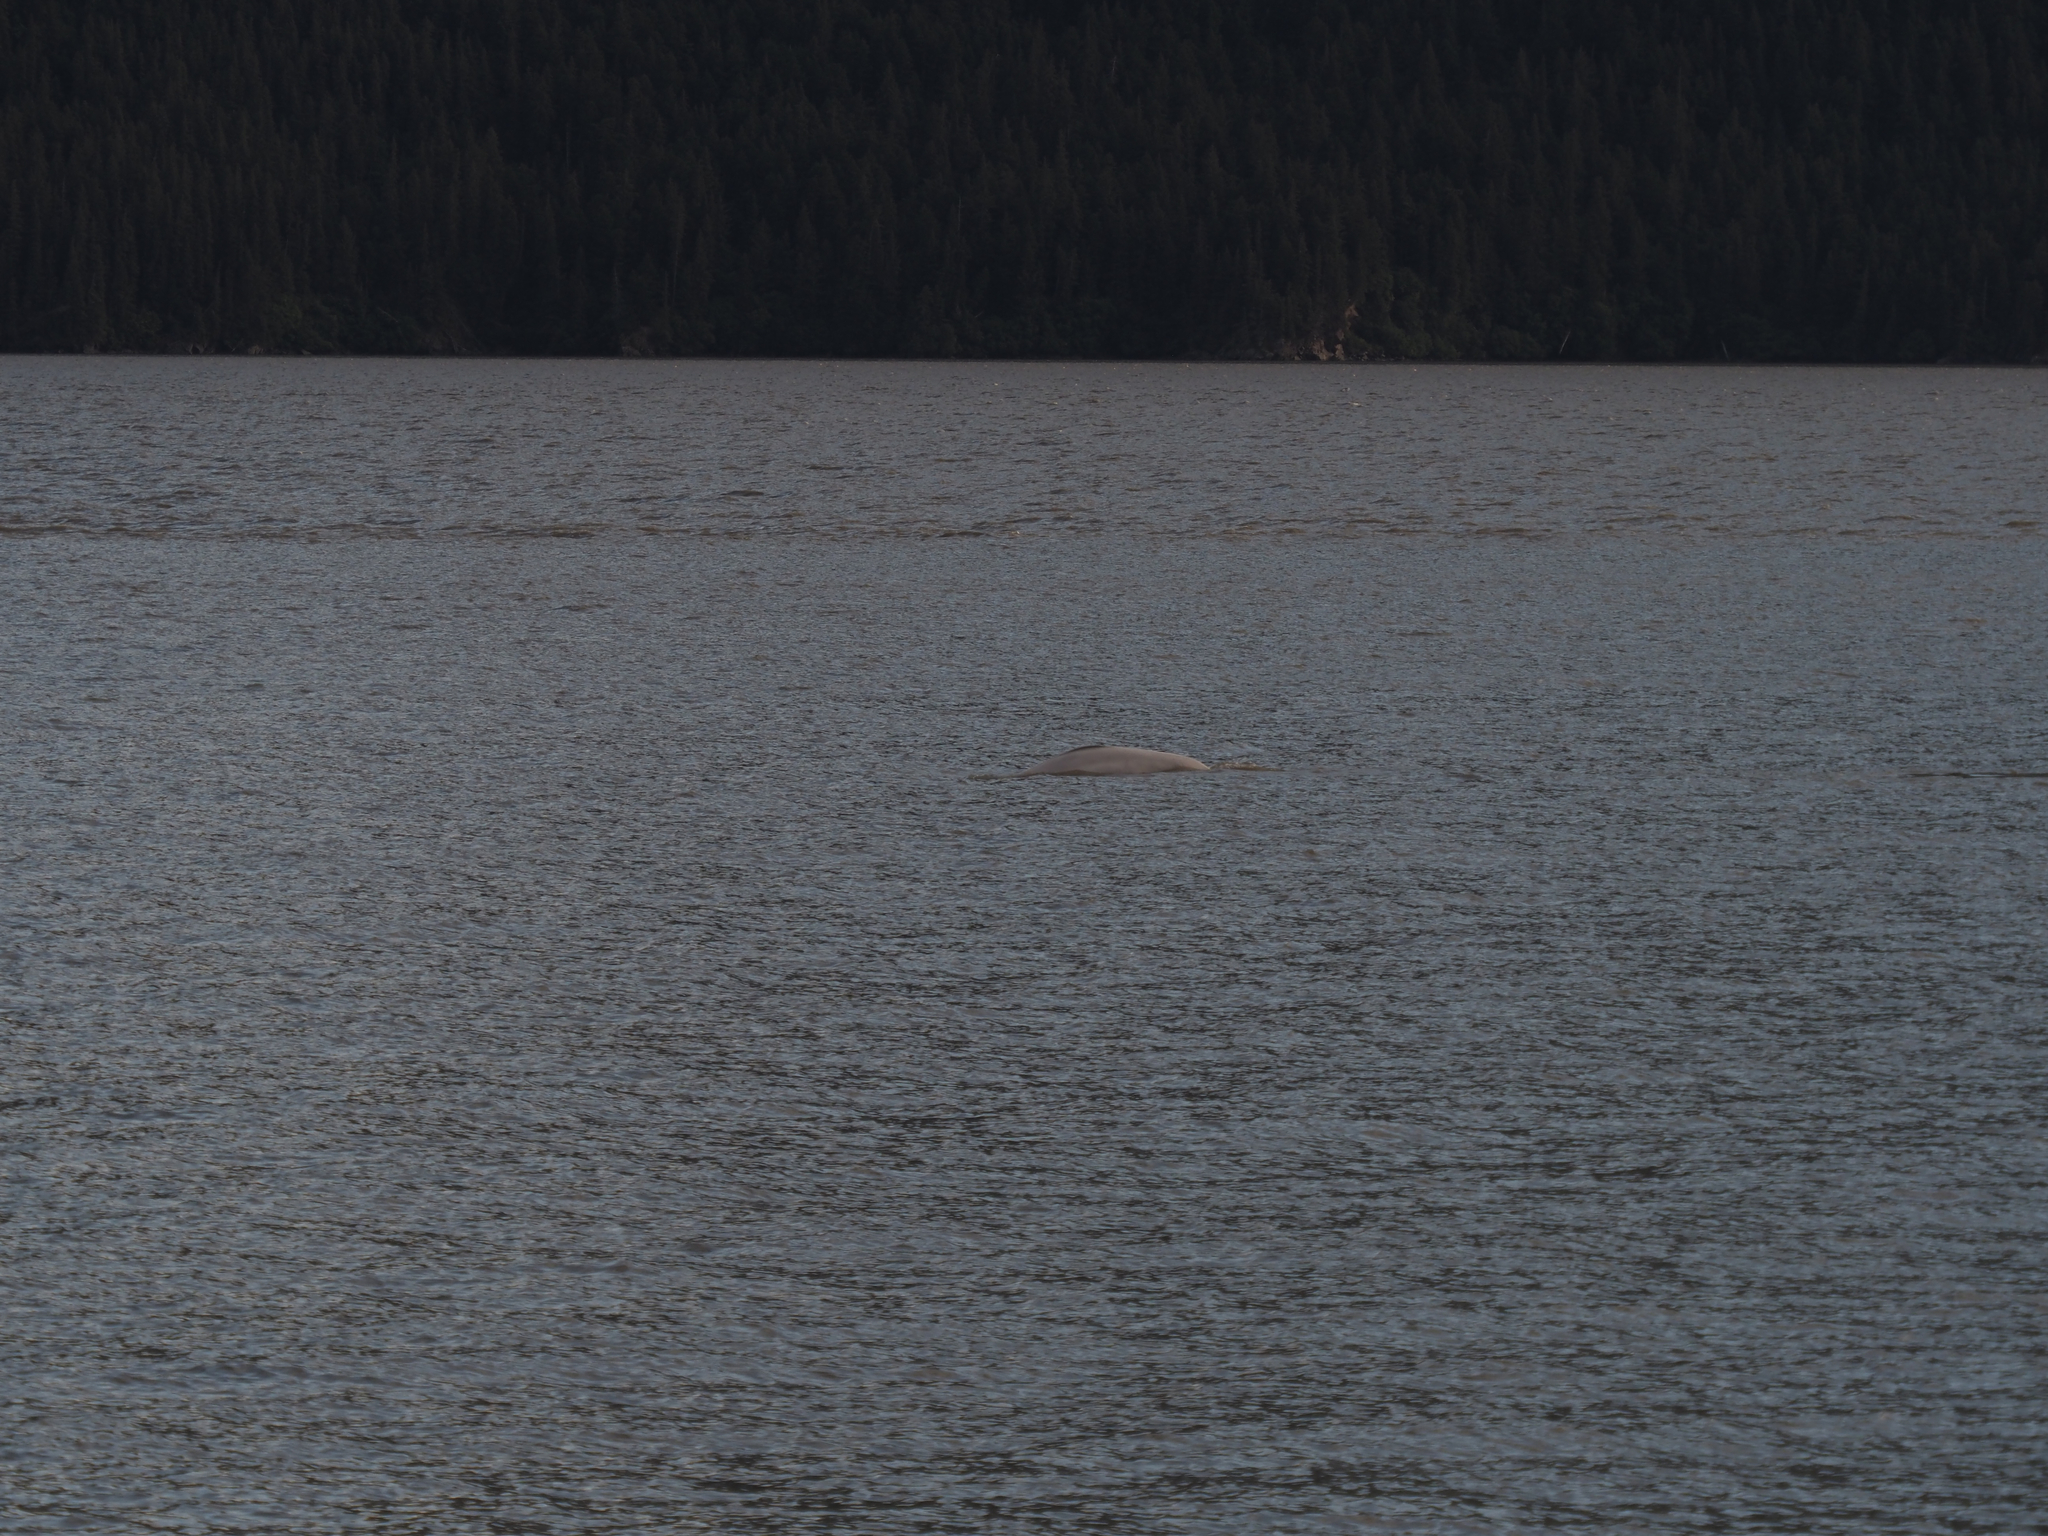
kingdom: Animalia
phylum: Chordata
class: Mammalia
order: Cetacea
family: Monodontidae
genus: Delphinapterus
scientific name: Delphinapterus leucas
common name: Beluga
